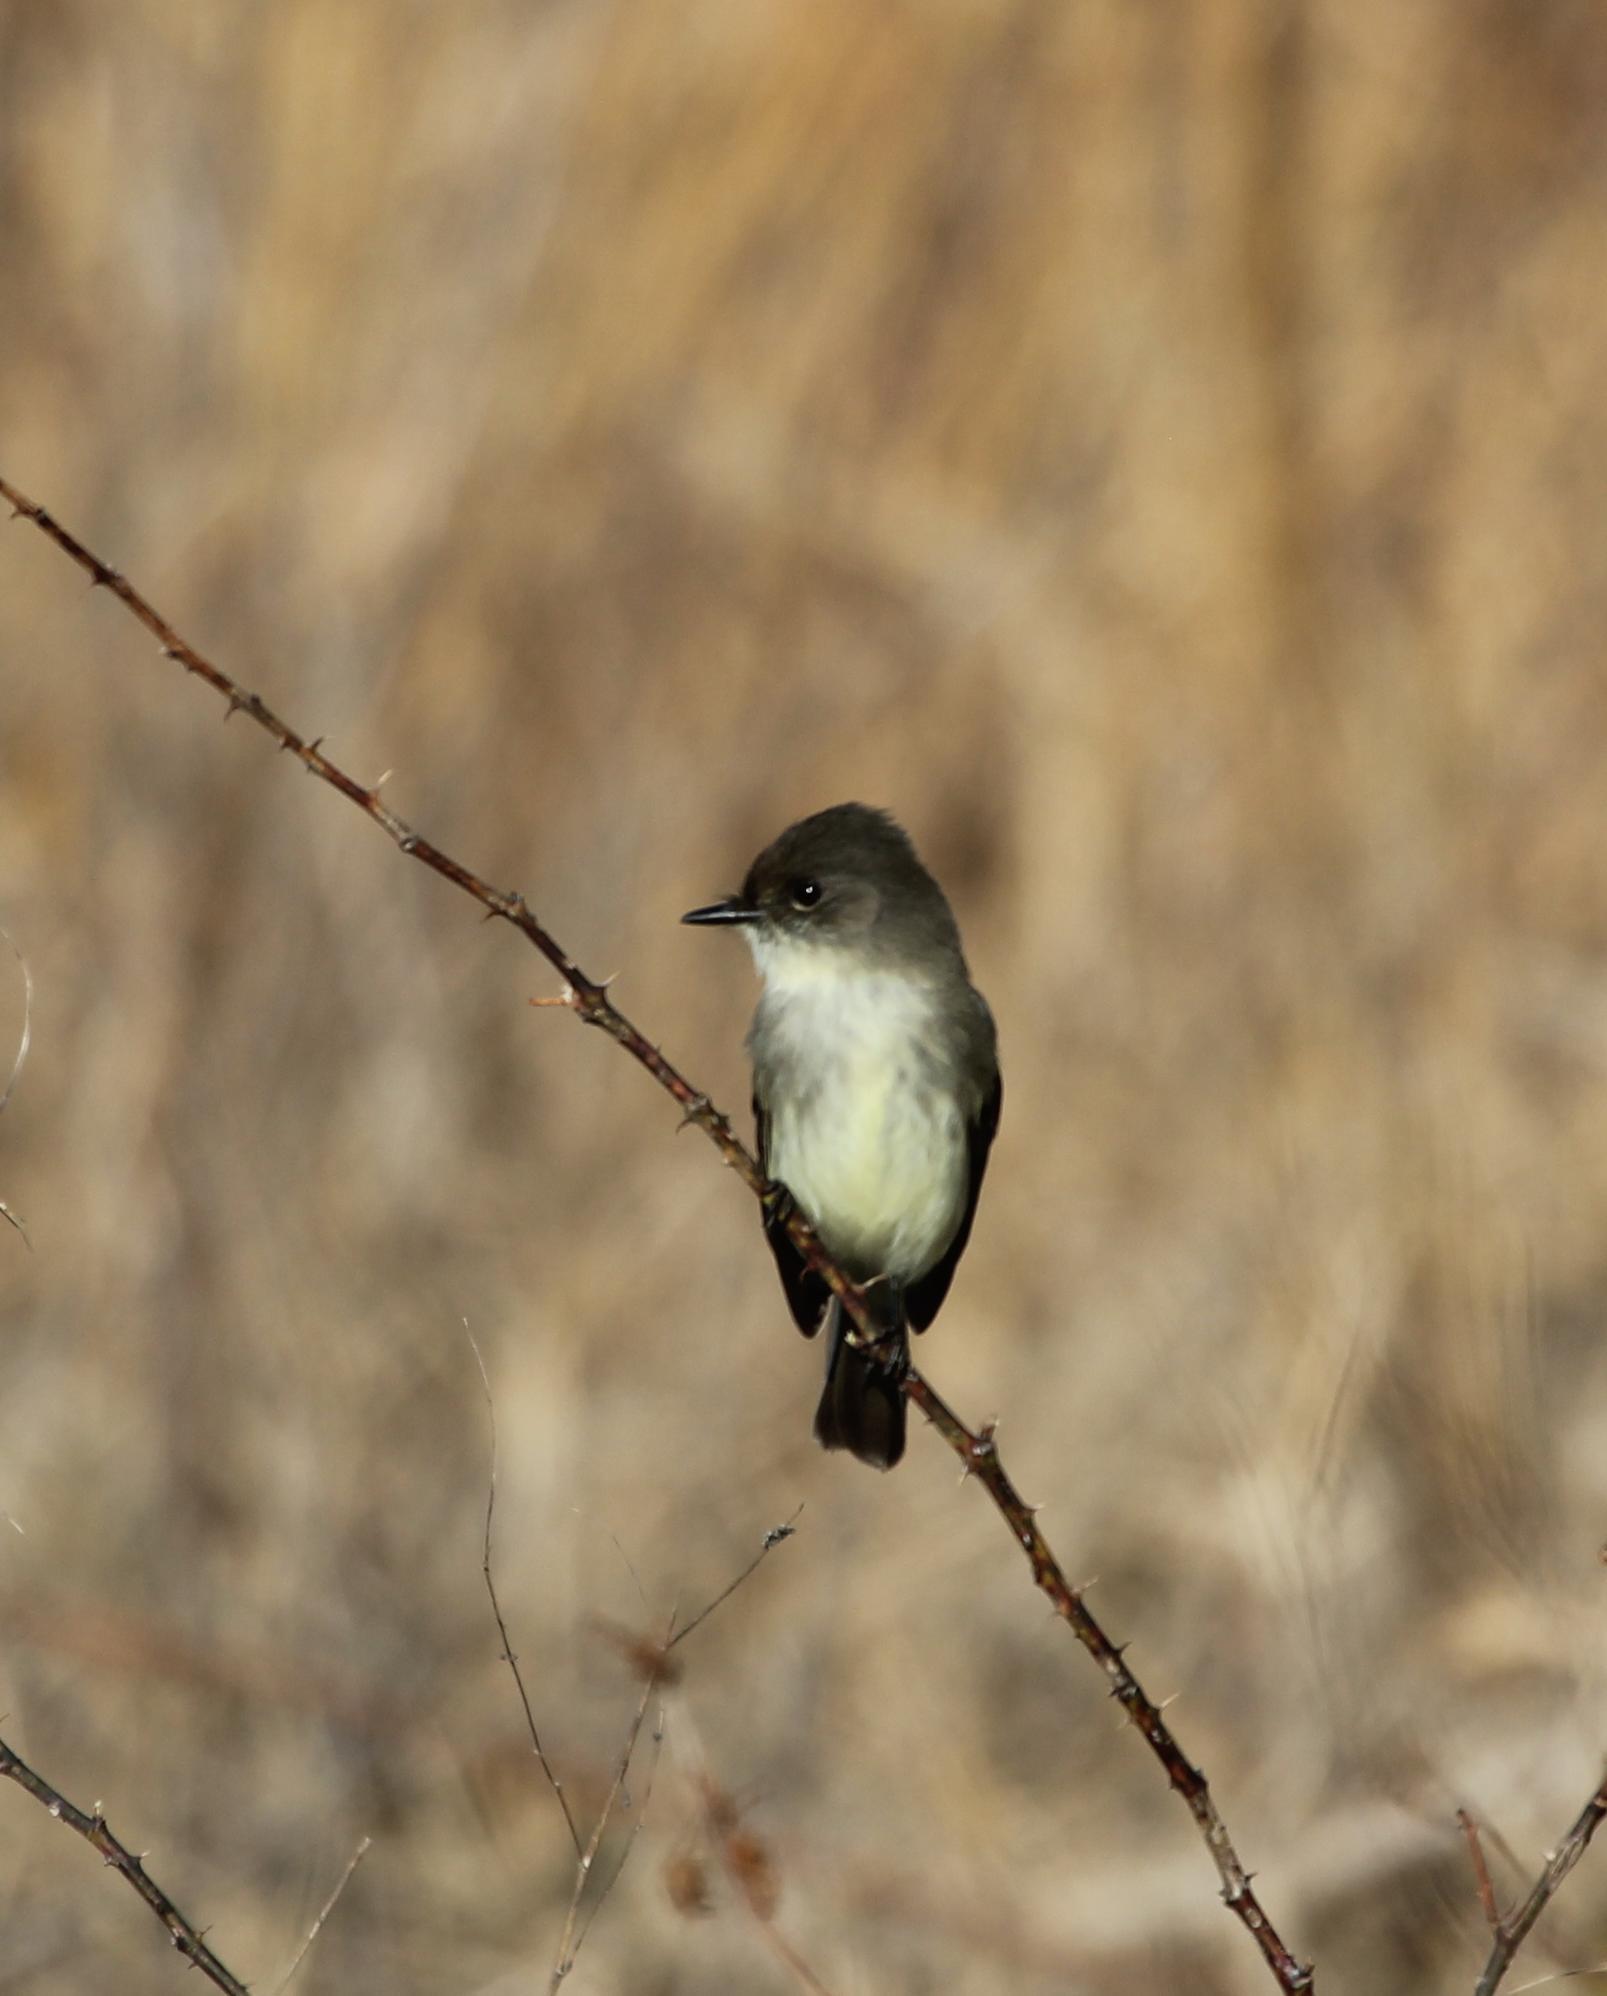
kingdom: Animalia
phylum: Chordata
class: Aves
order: Passeriformes
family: Tyrannidae
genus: Sayornis
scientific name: Sayornis phoebe
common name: Eastern phoebe
